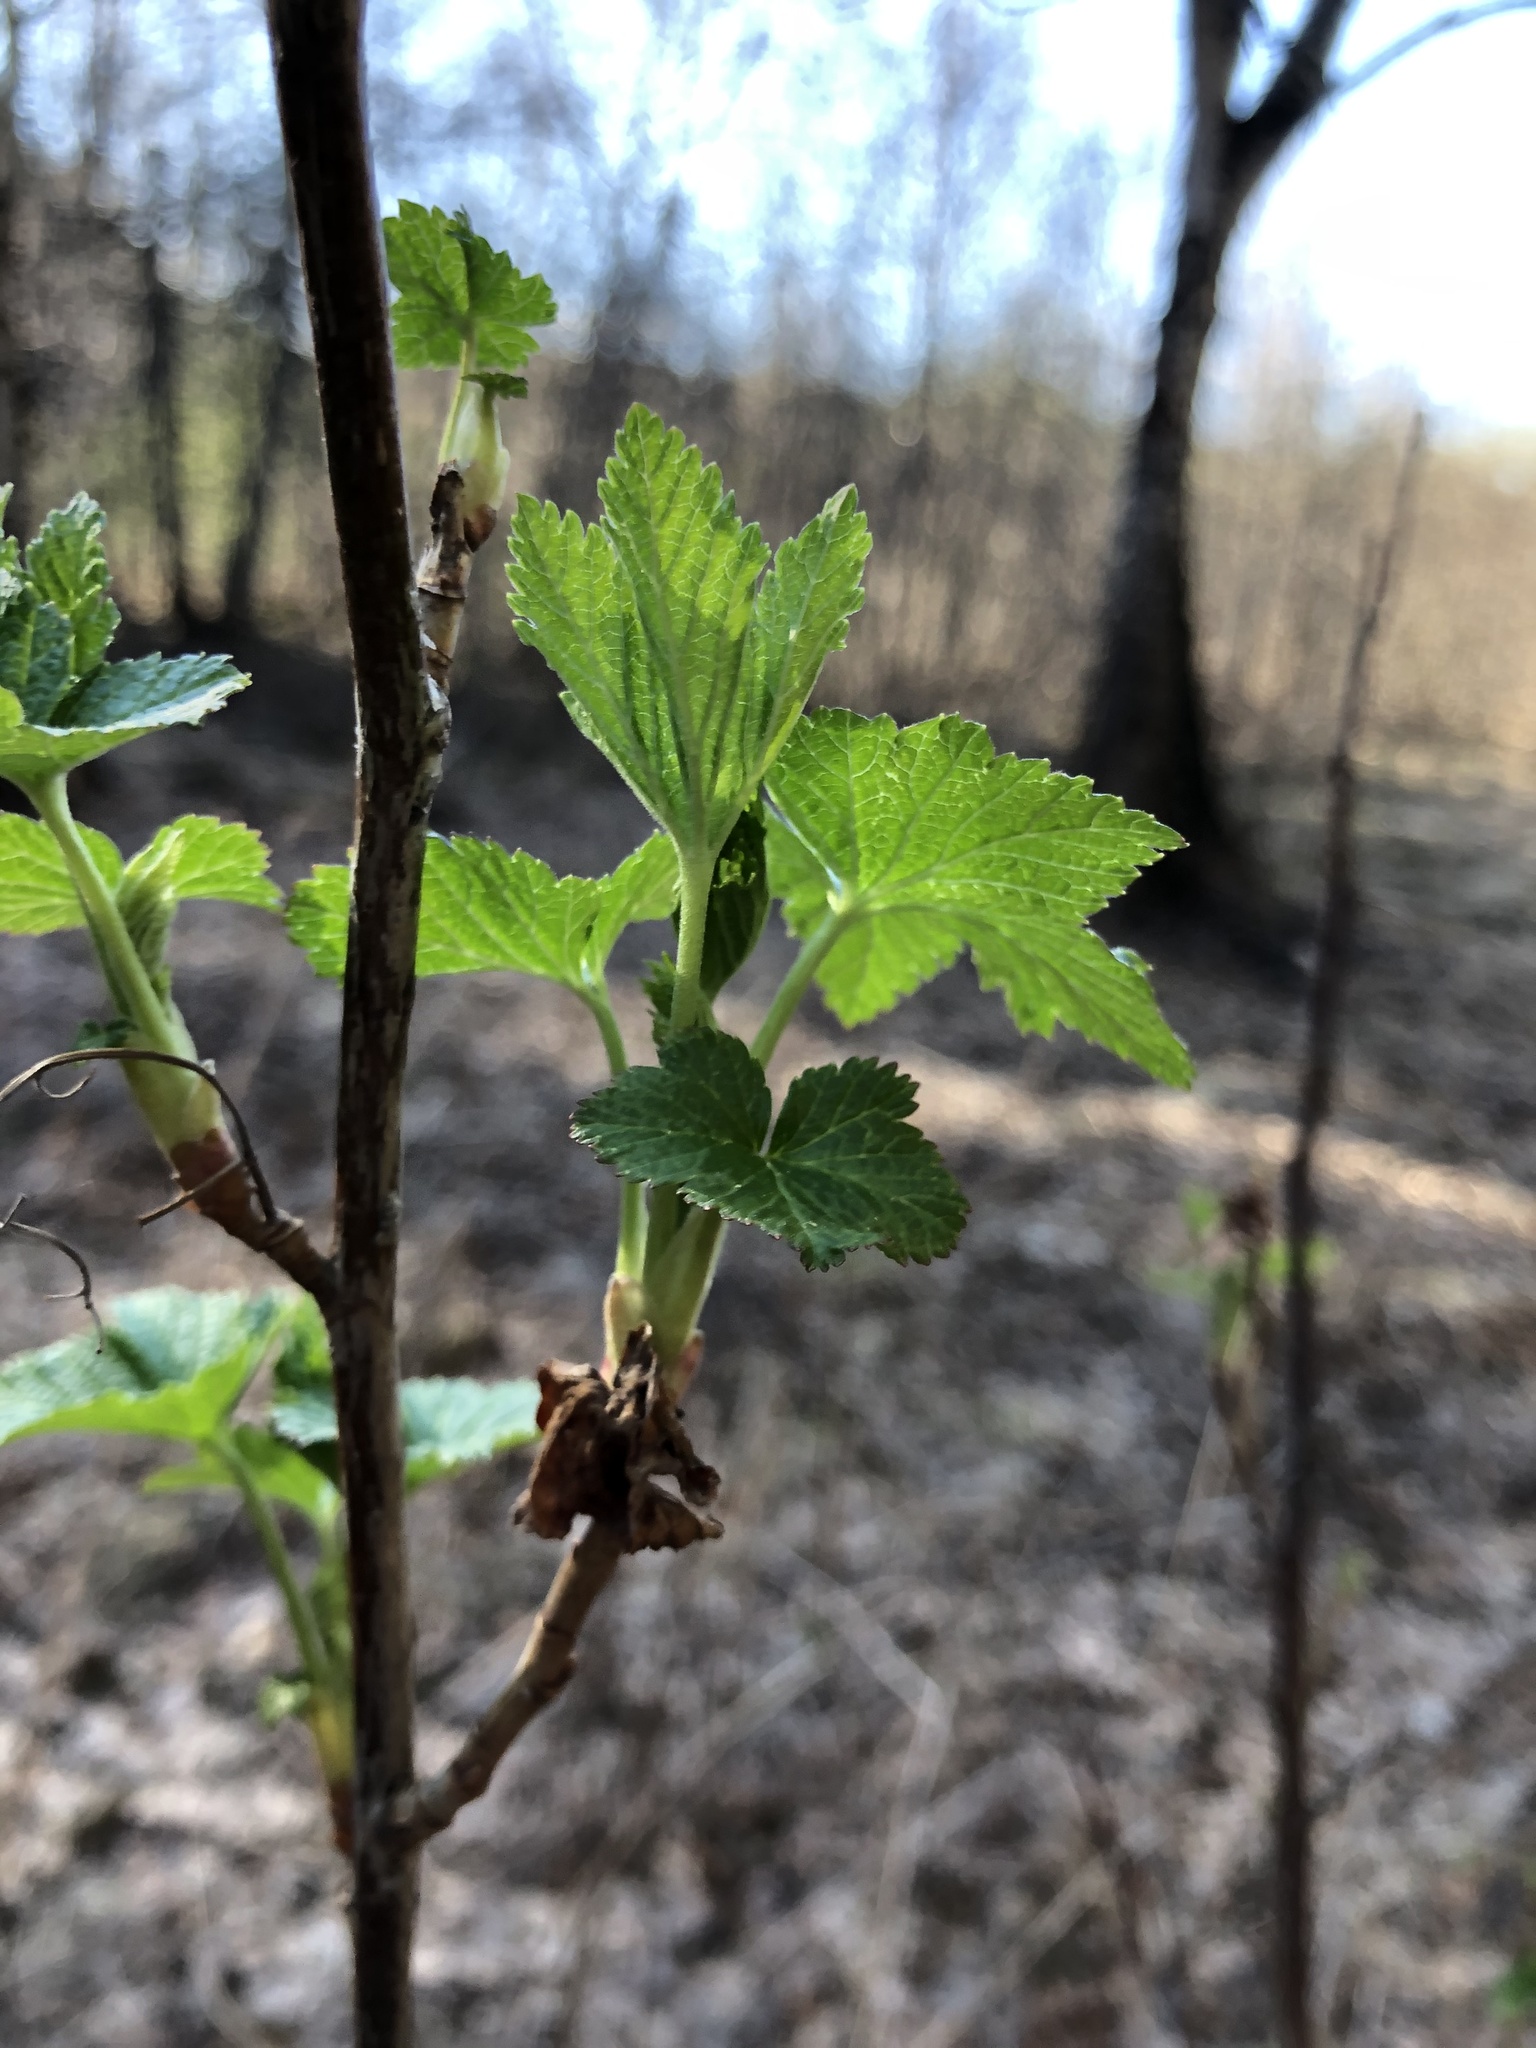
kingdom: Plantae
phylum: Tracheophyta
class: Magnoliopsida
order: Saxifragales
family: Grossulariaceae
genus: Ribes
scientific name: Ribes nigrum
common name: Black currant
